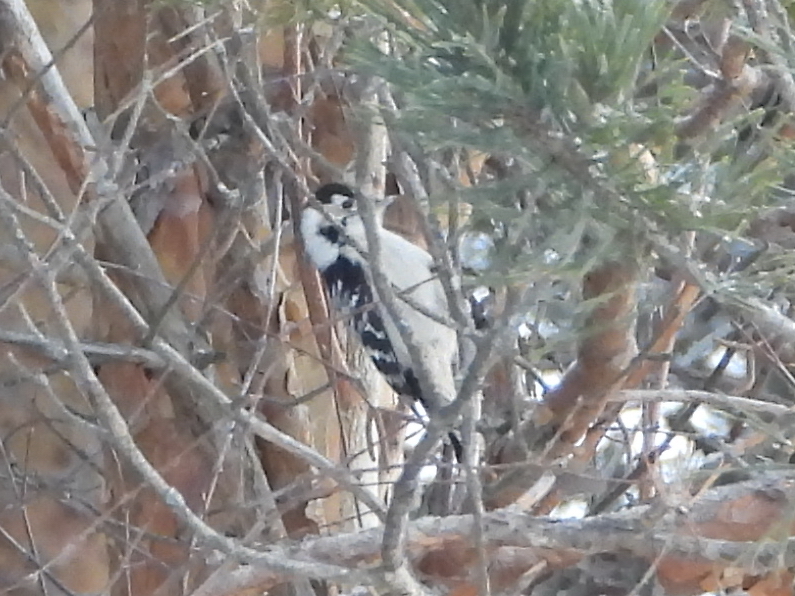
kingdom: Animalia
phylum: Chordata
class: Aves
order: Piciformes
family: Picidae
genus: Dryobates
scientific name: Dryobates minor
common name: Lesser spotted woodpecker
